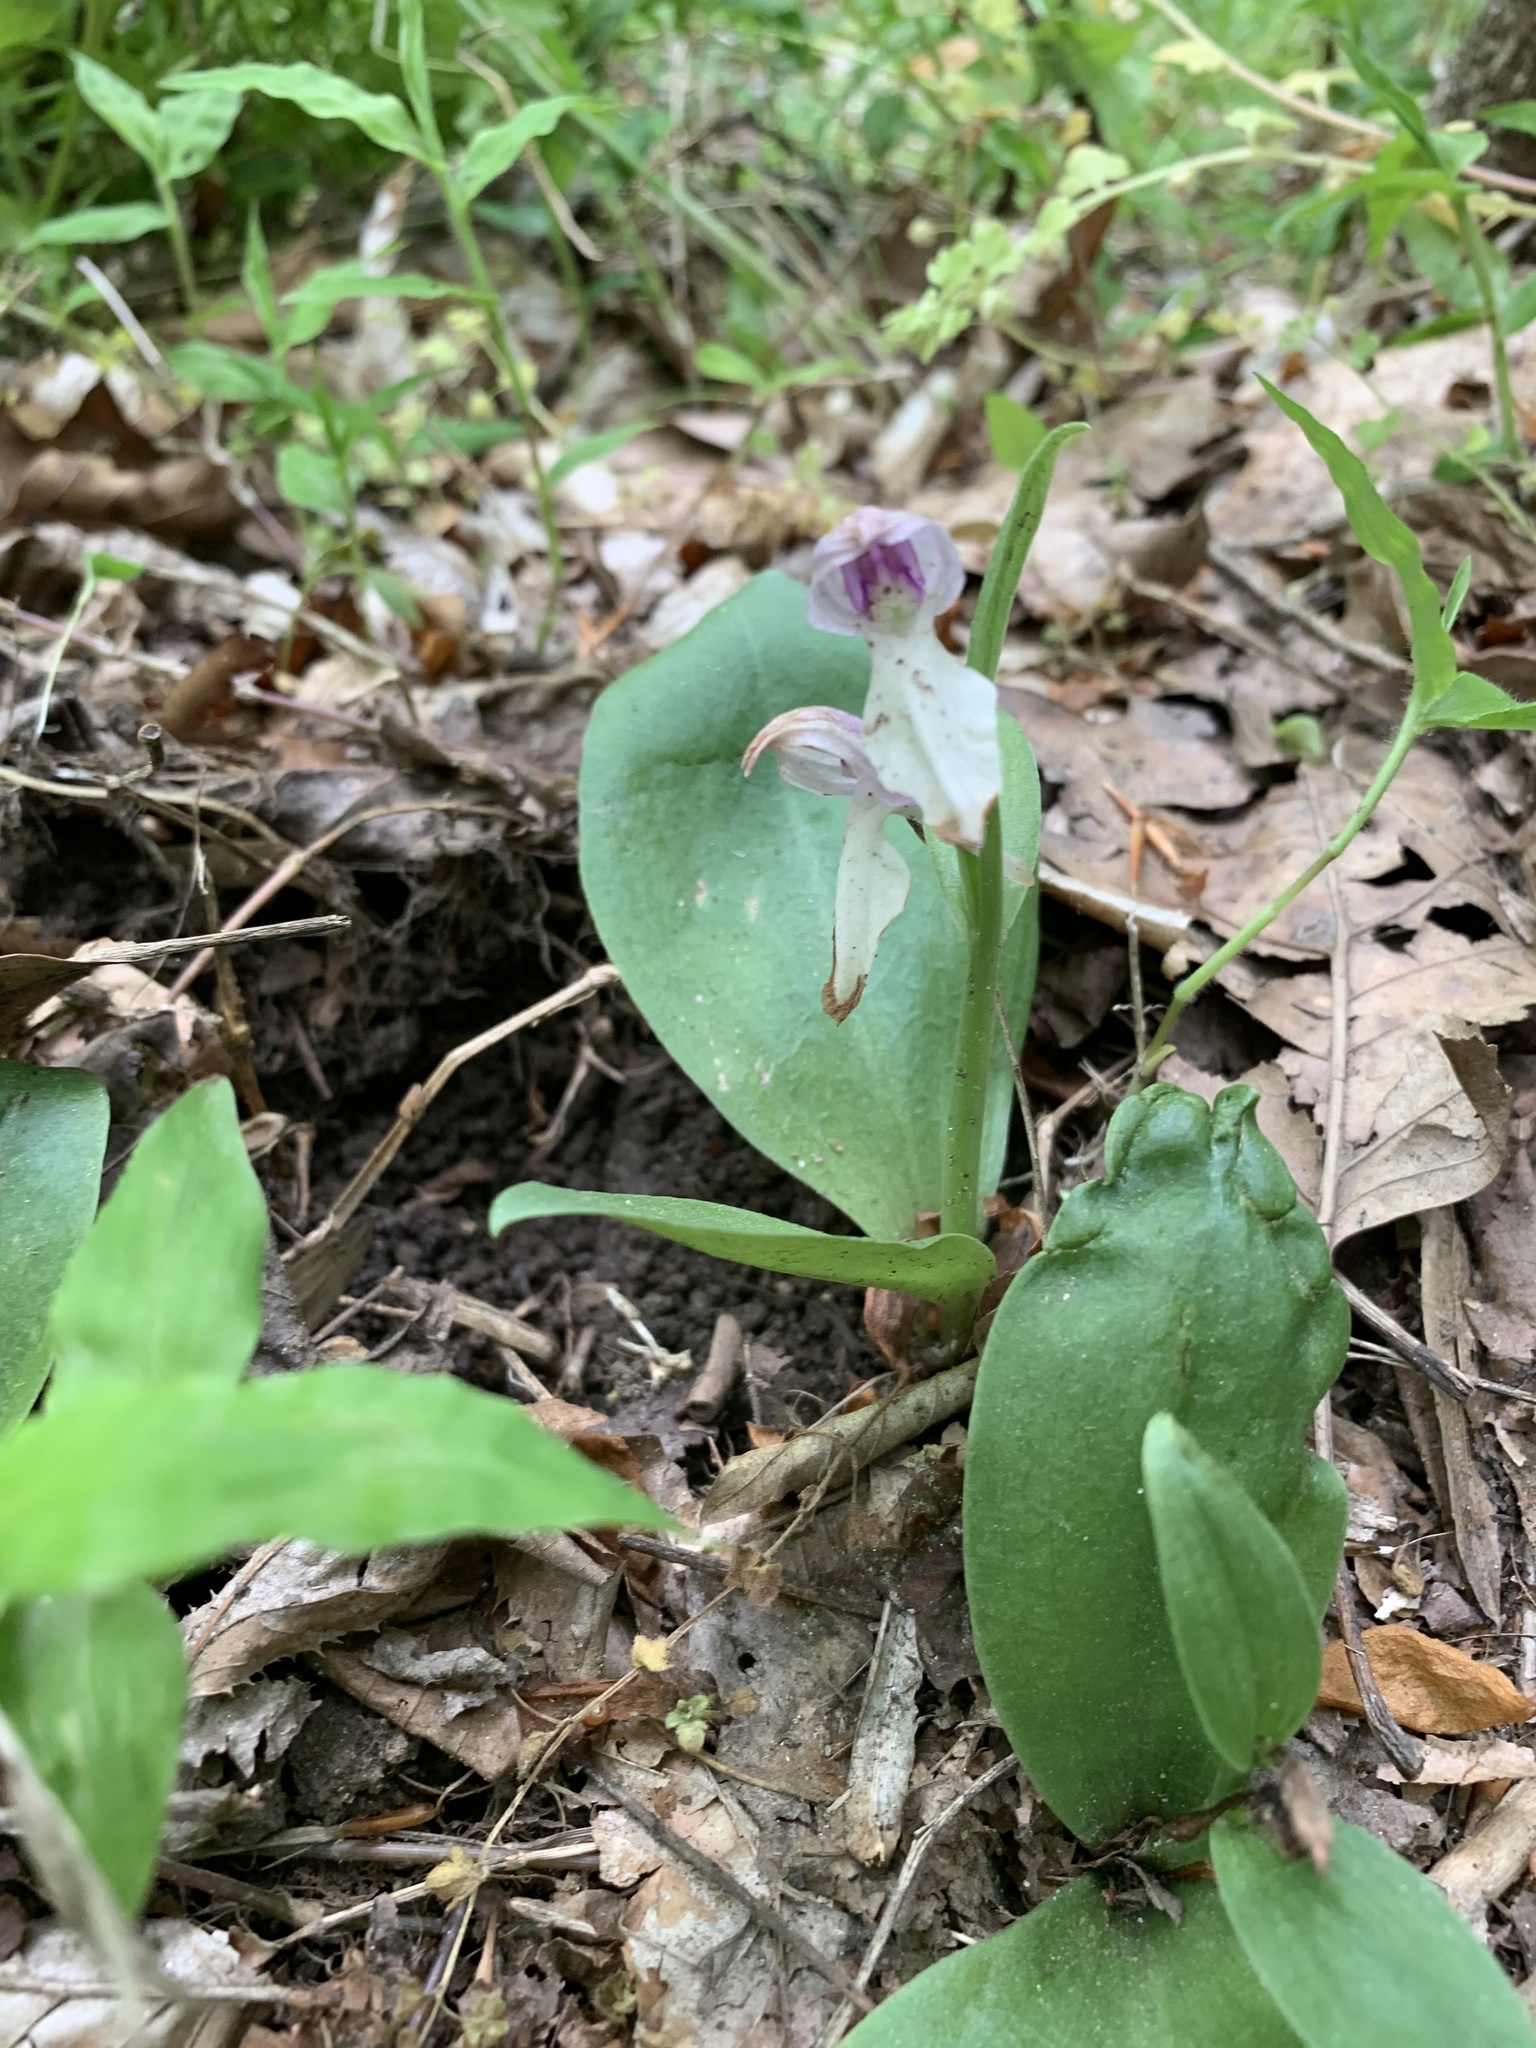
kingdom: Plantae
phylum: Tracheophyta
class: Liliopsida
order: Asparagales
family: Orchidaceae
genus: Galearis
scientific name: Galearis spectabilis
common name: Purple-hooded orchis
